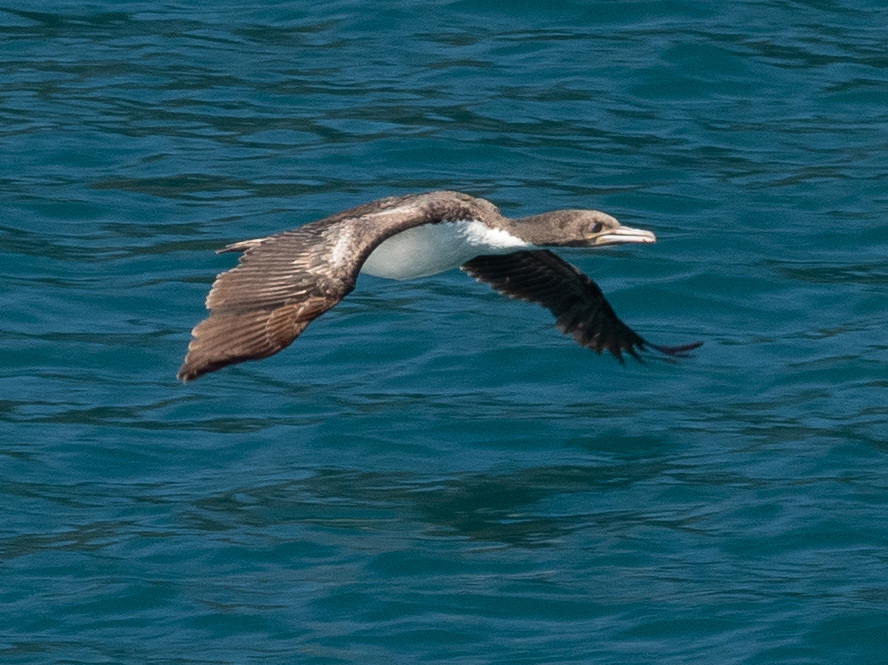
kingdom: Animalia
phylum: Chordata
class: Aves
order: Suliformes
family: Phalacrocoracidae
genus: Leucocarbo
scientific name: Leucocarbo carunculatus
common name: Rough-faced shag
